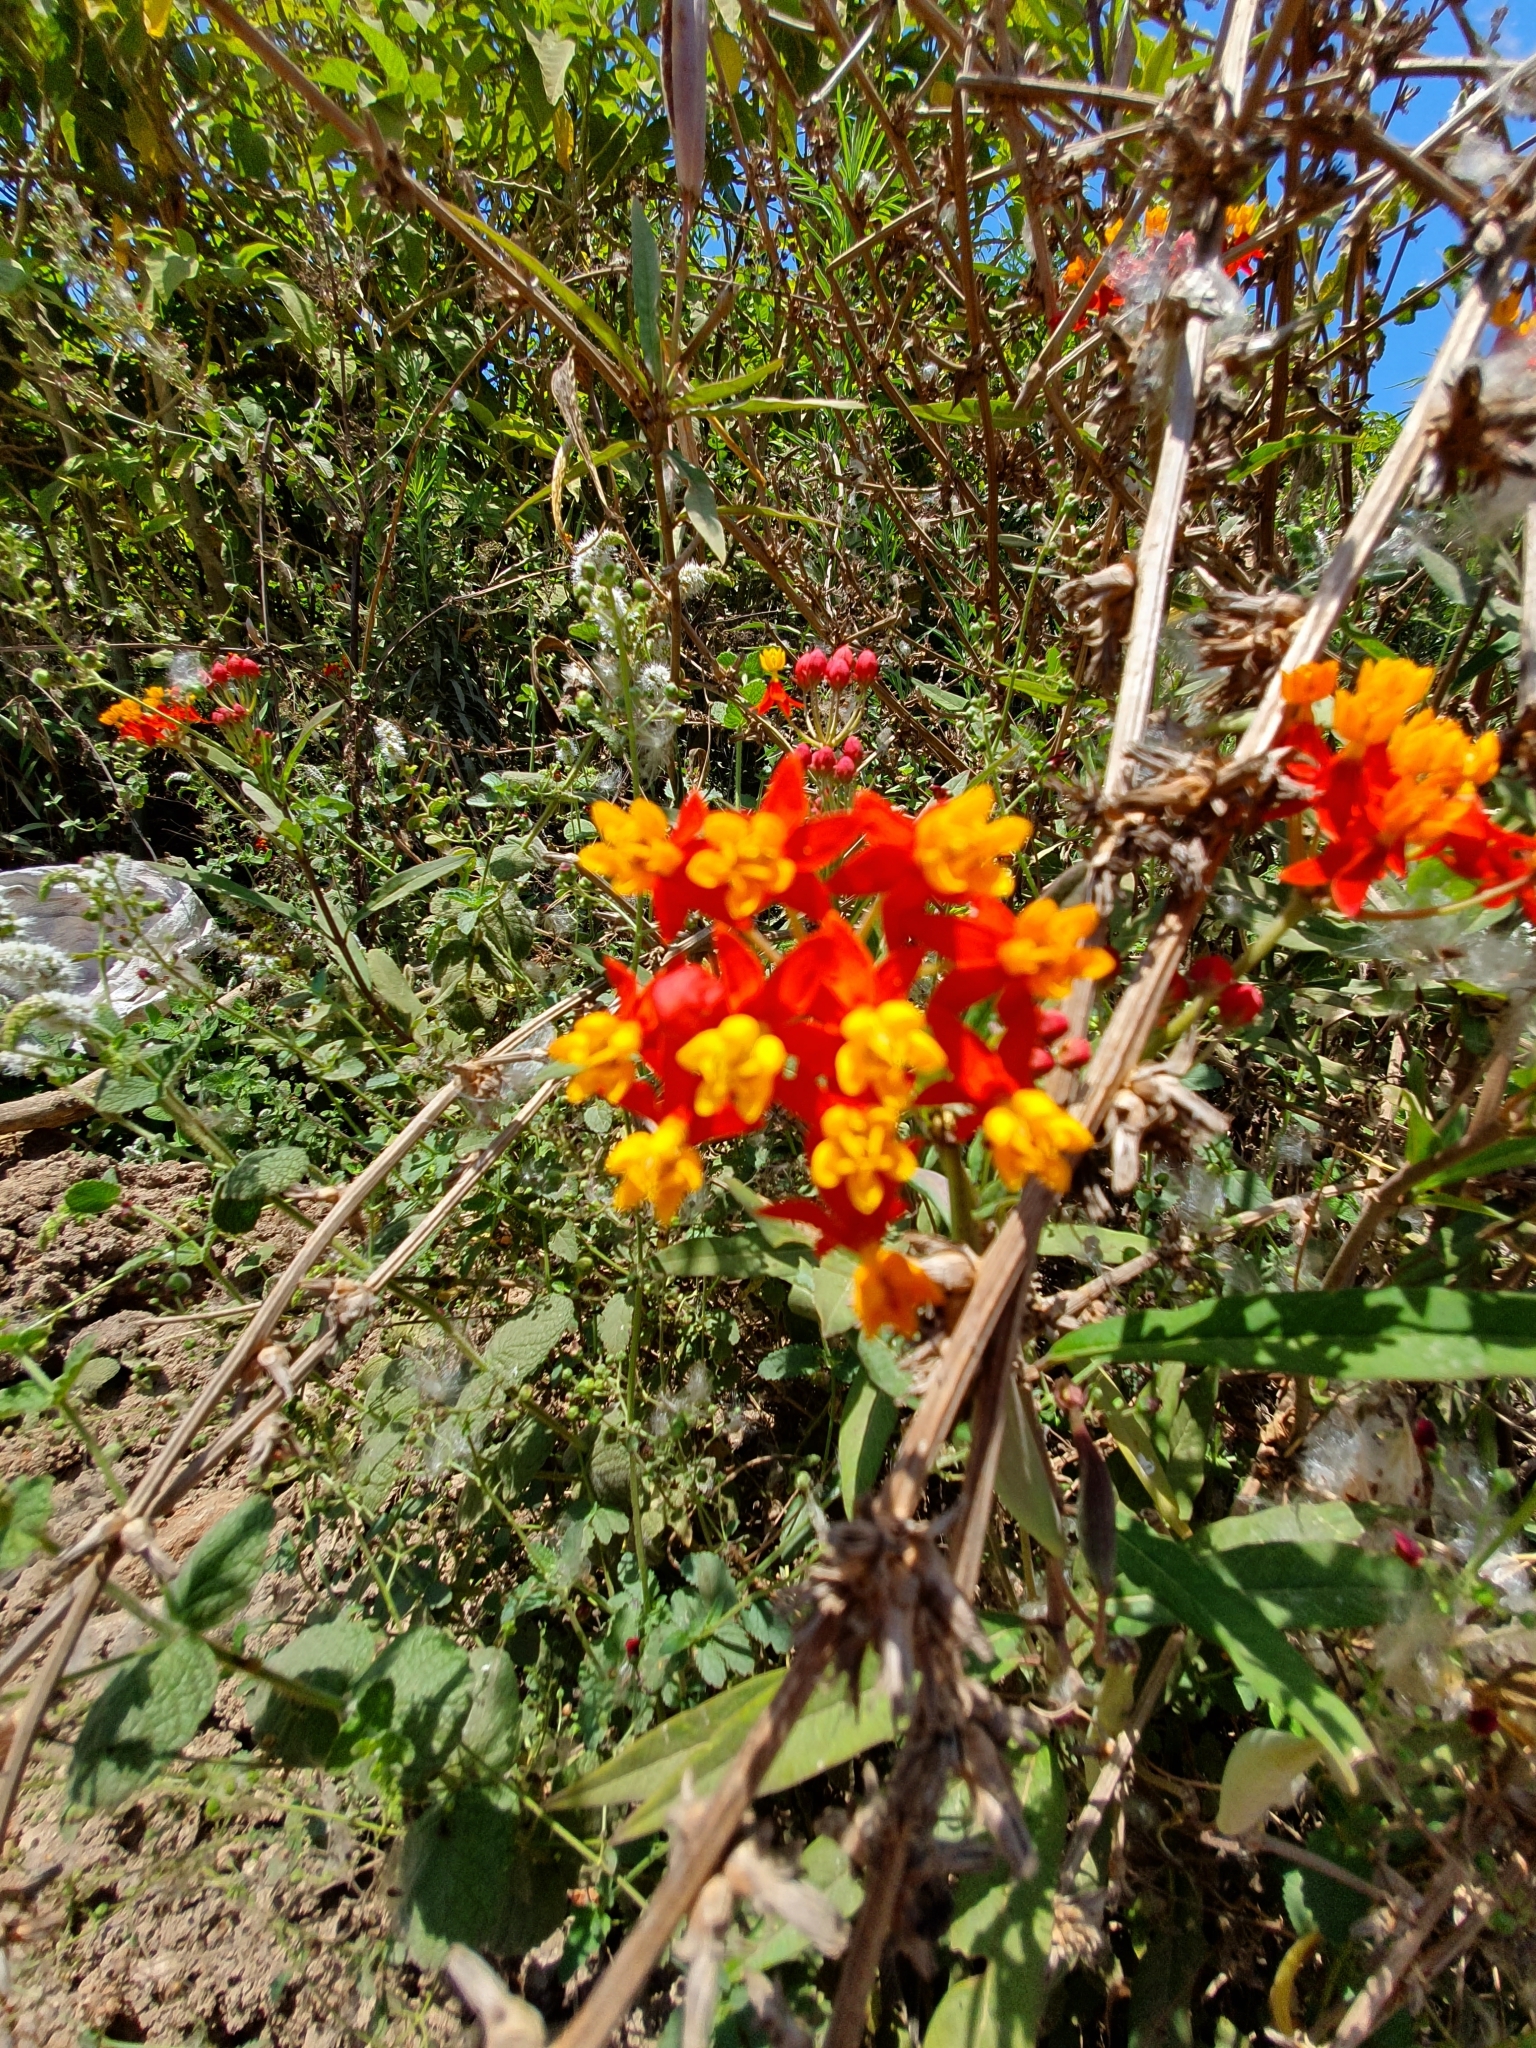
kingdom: Plantae
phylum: Tracheophyta
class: Magnoliopsida
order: Gentianales
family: Apocynaceae
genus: Asclepias
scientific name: Asclepias curassavica
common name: Bloodflower
